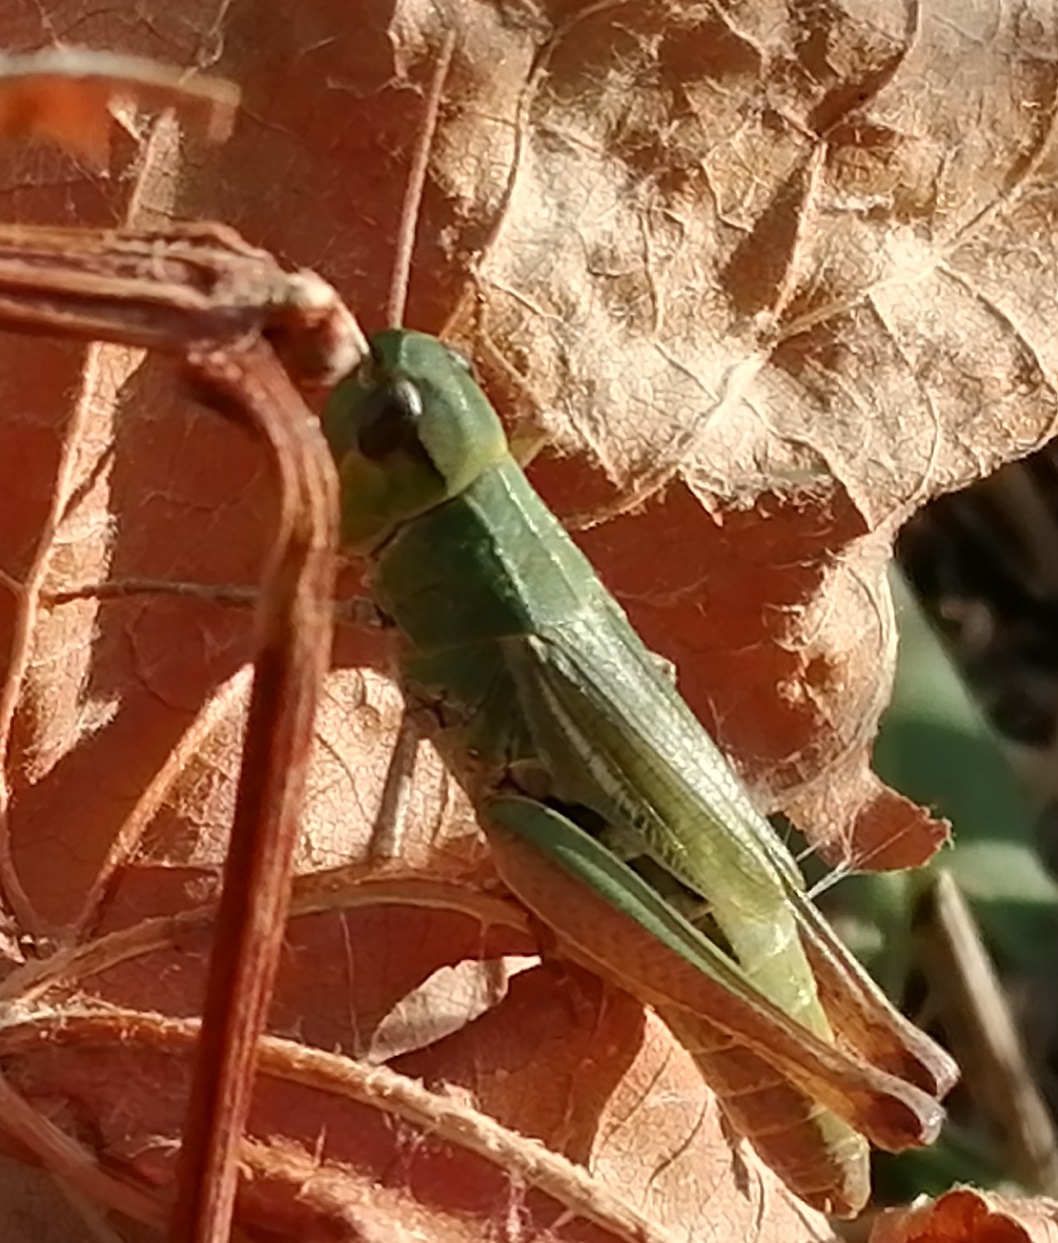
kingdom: Animalia
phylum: Arthropoda
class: Insecta
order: Orthoptera
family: Acrididae
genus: Pseudochorthippus
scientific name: Pseudochorthippus parallelus
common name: Meadow grasshopper
